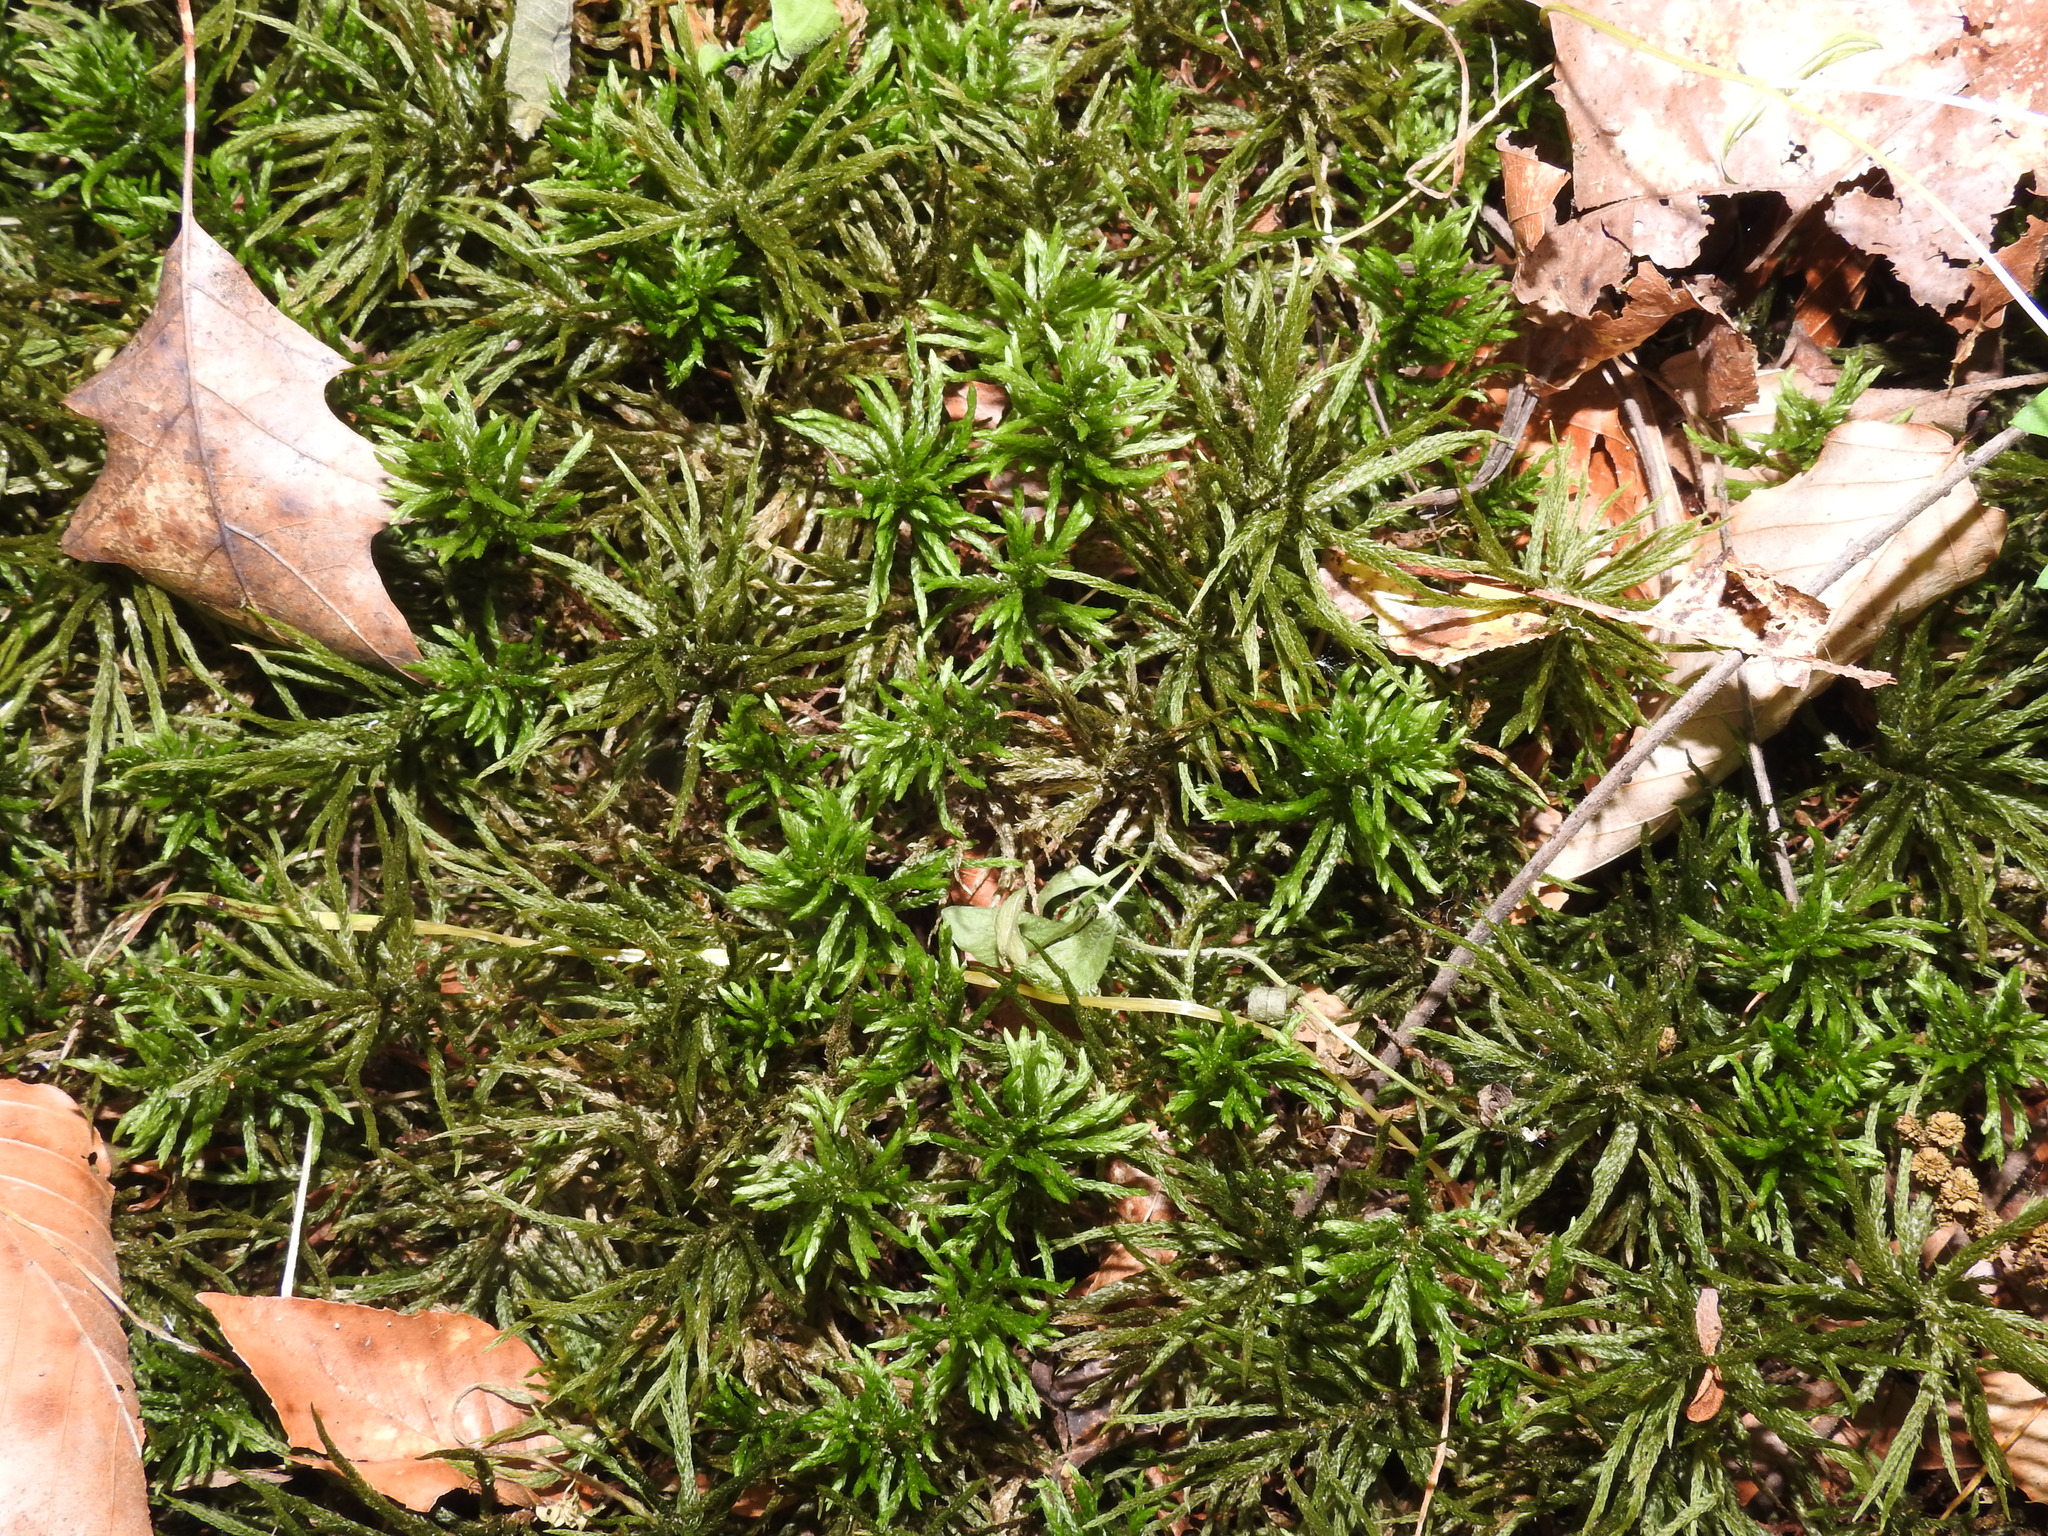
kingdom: Plantae
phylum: Bryophyta
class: Bryopsida
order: Hypnales
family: Climaciaceae
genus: Climacium
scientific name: Climacium americanum
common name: American tree moss
